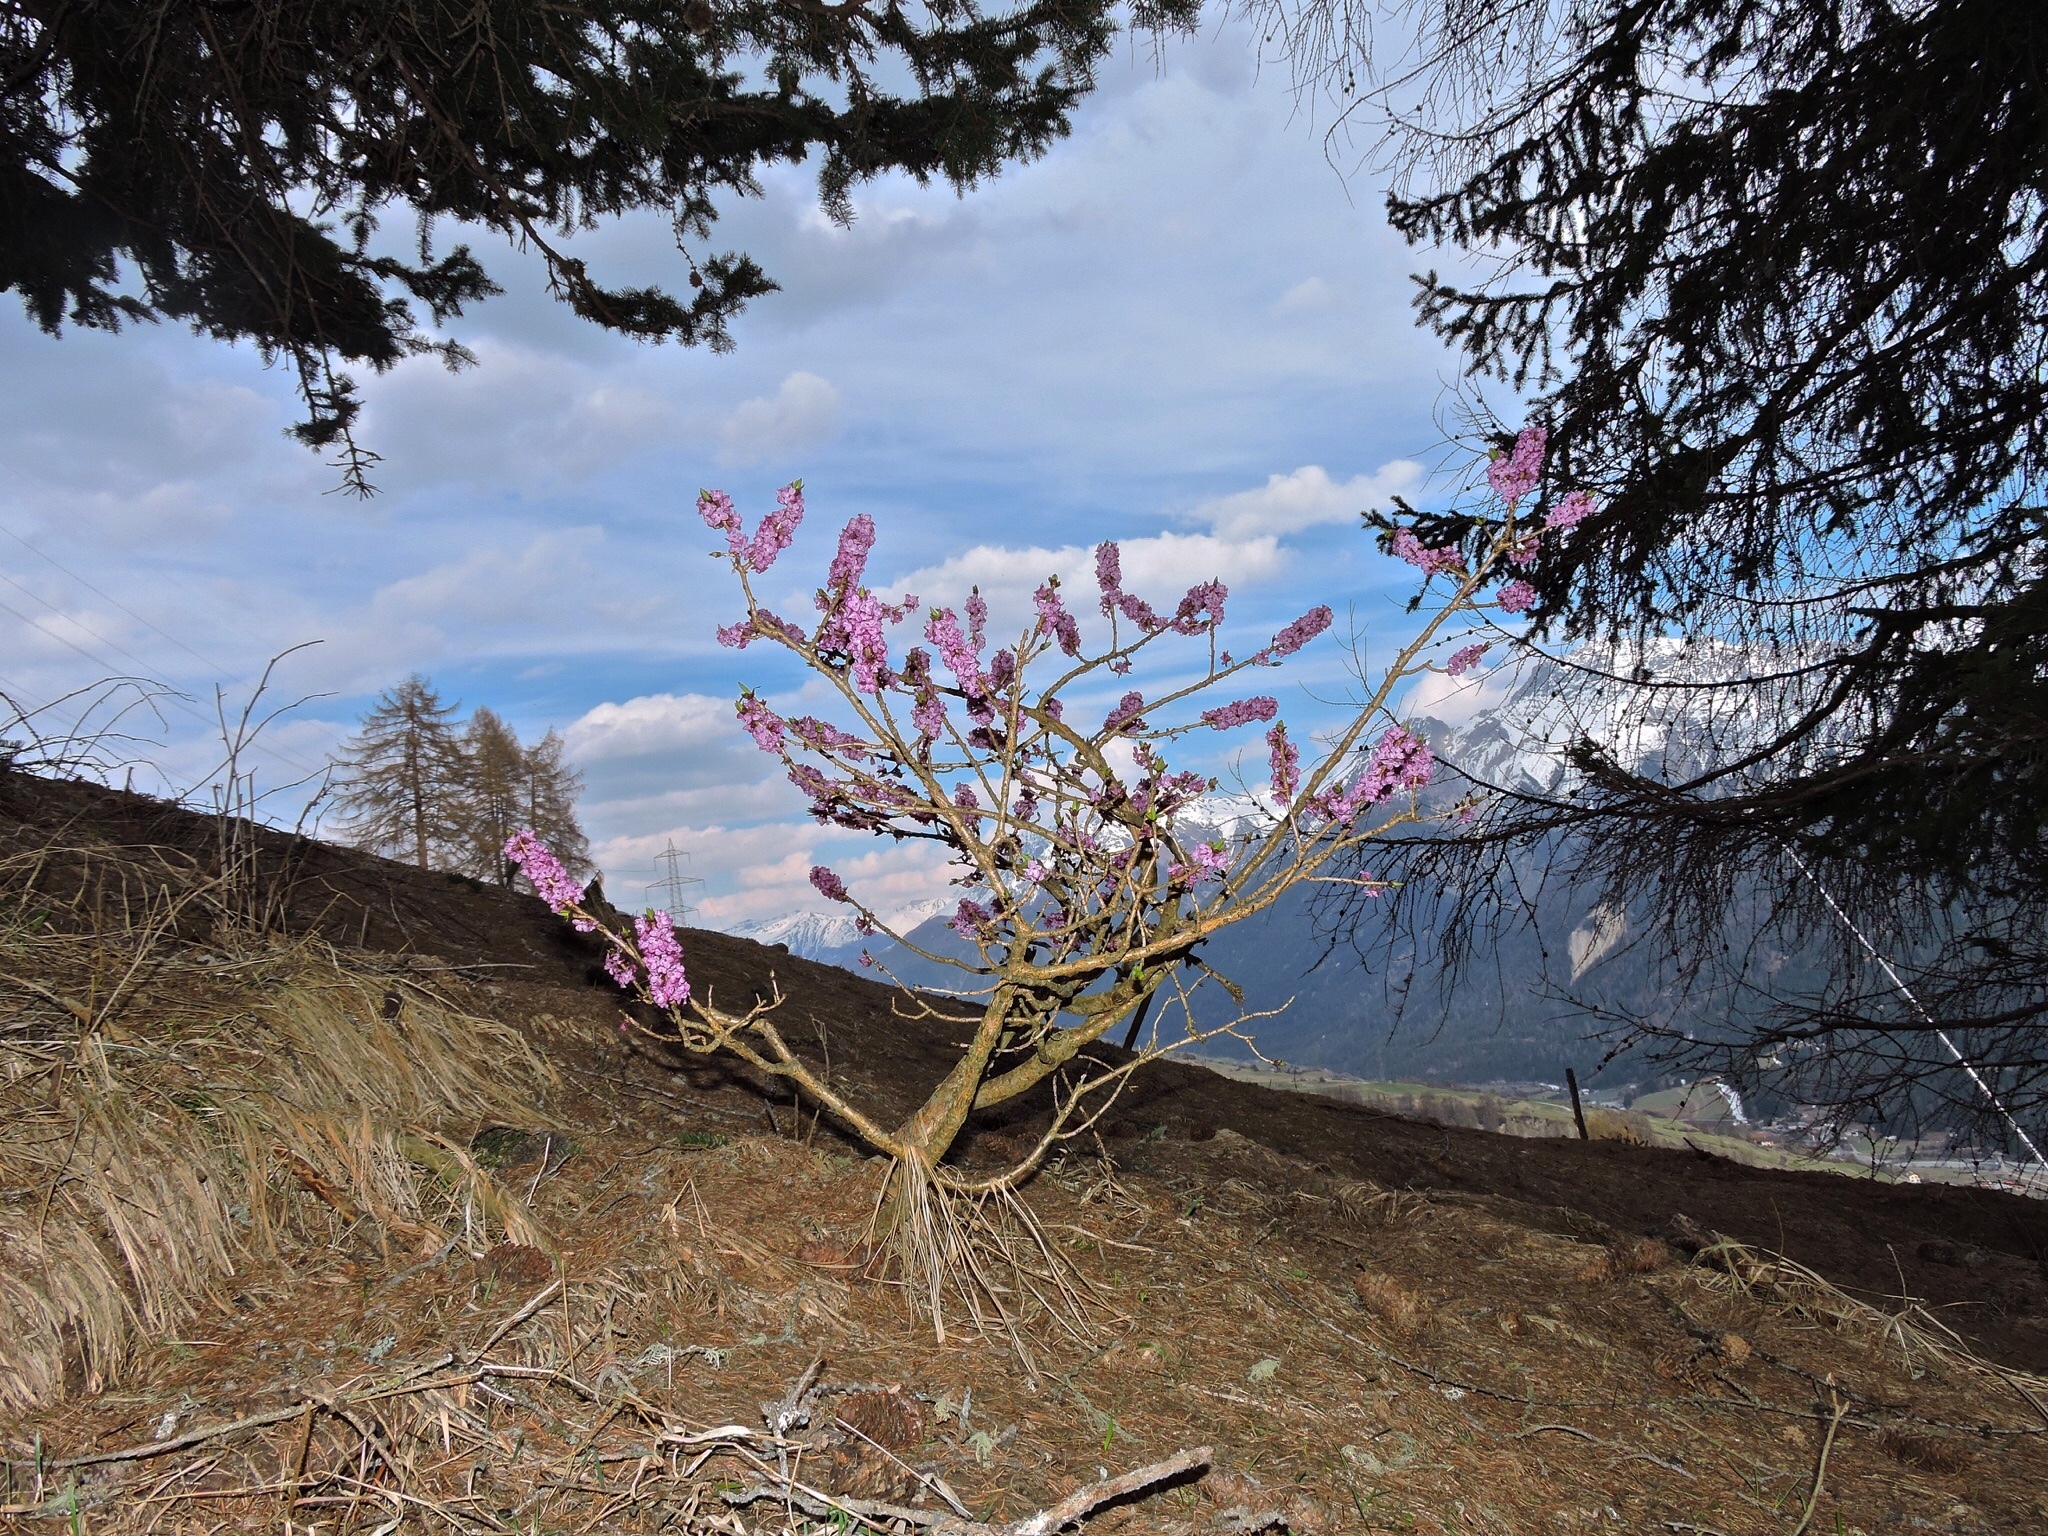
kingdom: Plantae
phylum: Tracheophyta
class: Magnoliopsida
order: Malvales
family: Thymelaeaceae
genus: Daphne
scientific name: Daphne mezereum
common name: Mezereon
